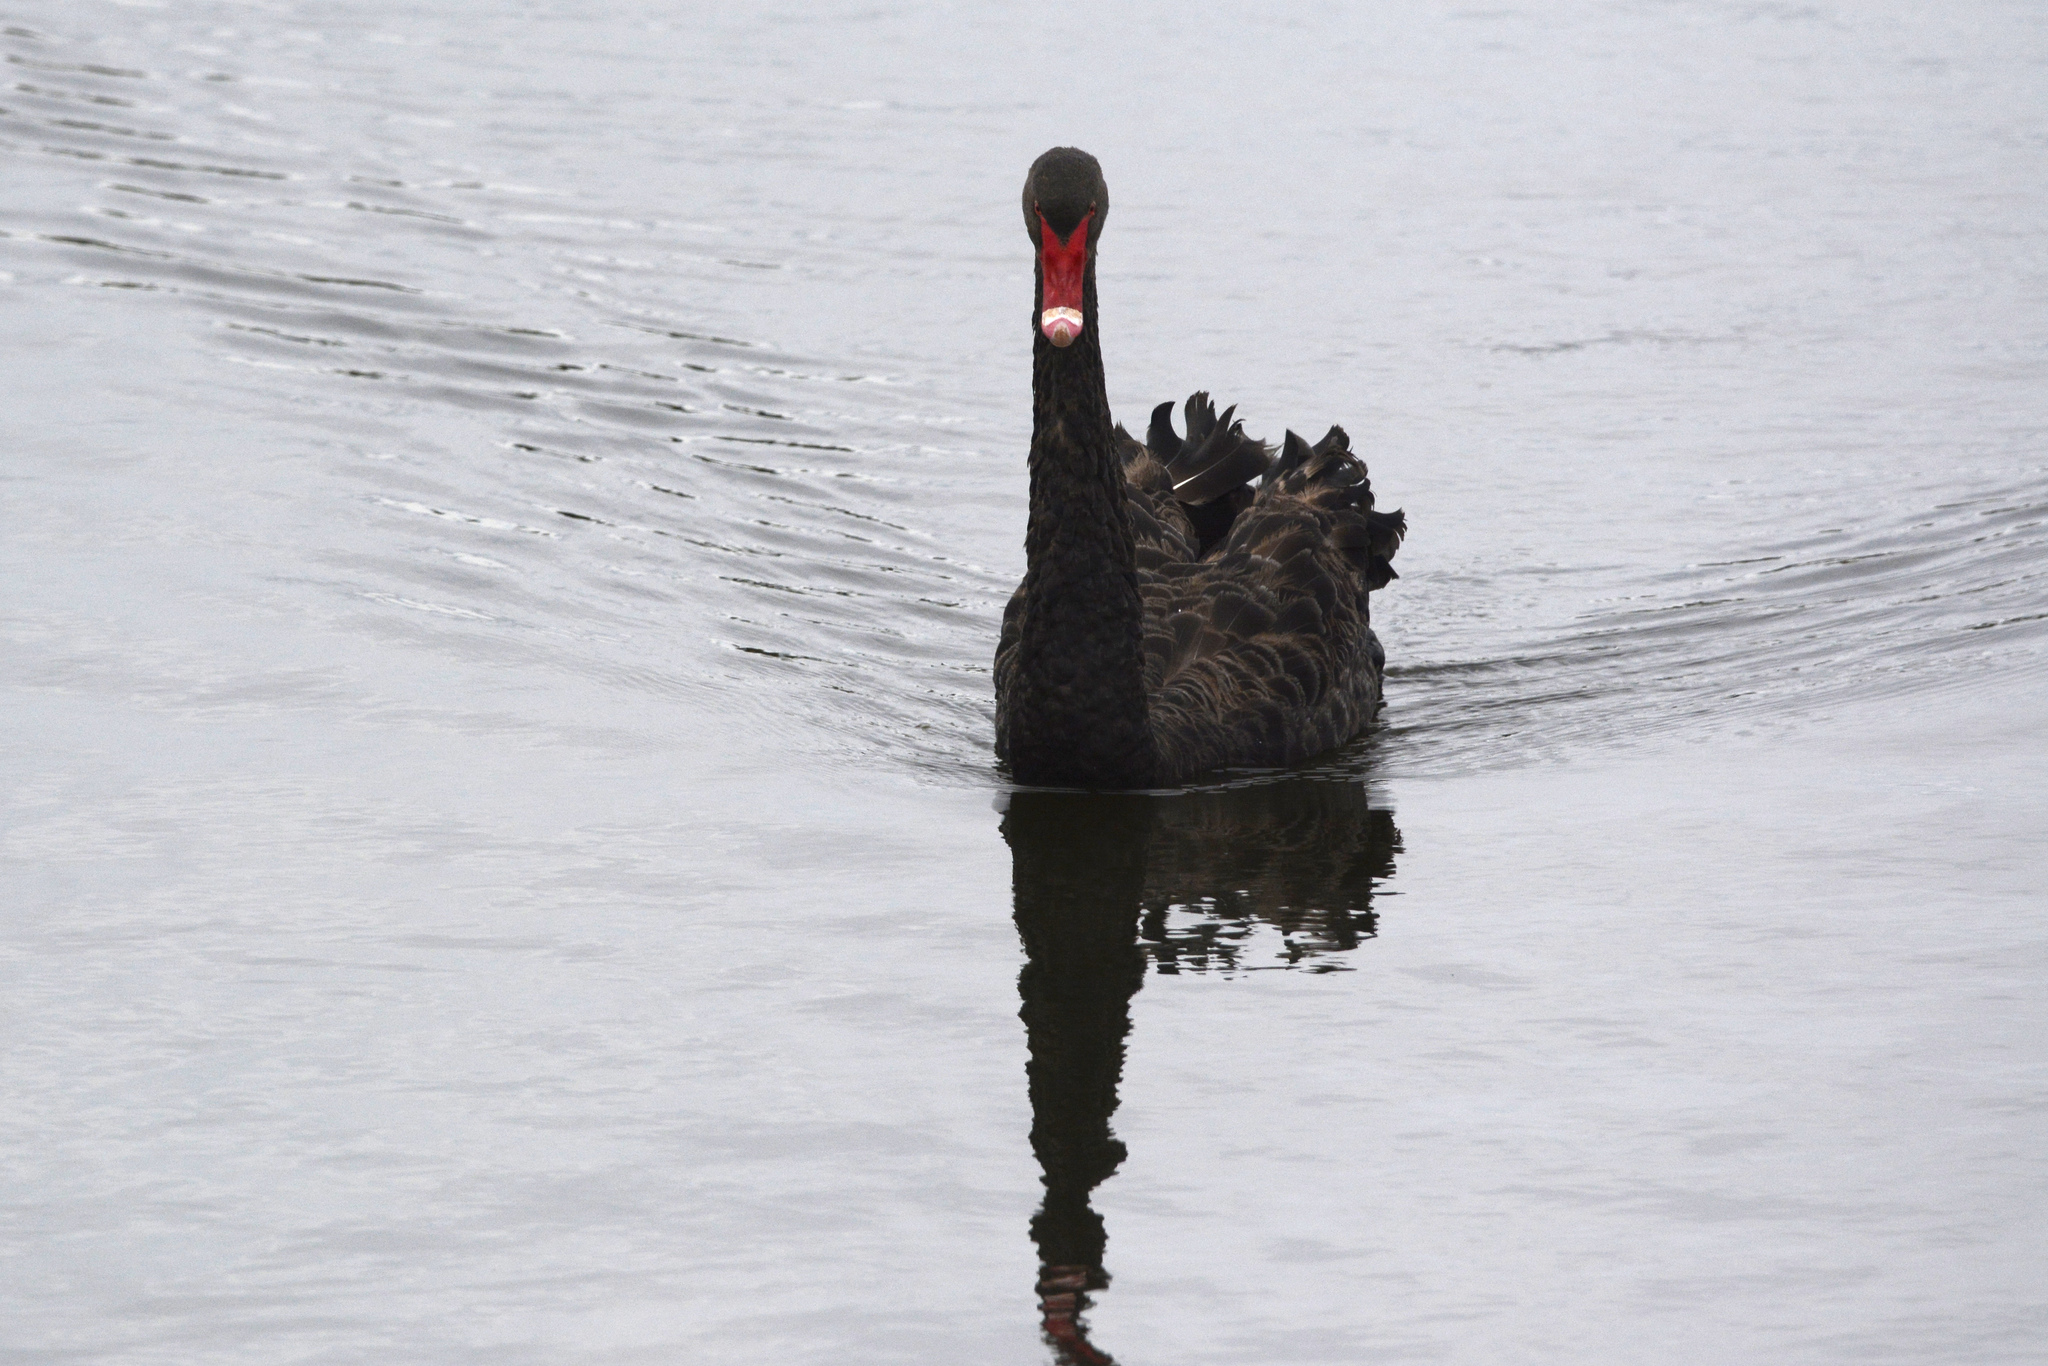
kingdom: Animalia
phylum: Chordata
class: Aves
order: Anseriformes
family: Anatidae
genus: Cygnus
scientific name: Cygnus atratus
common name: Black swan
